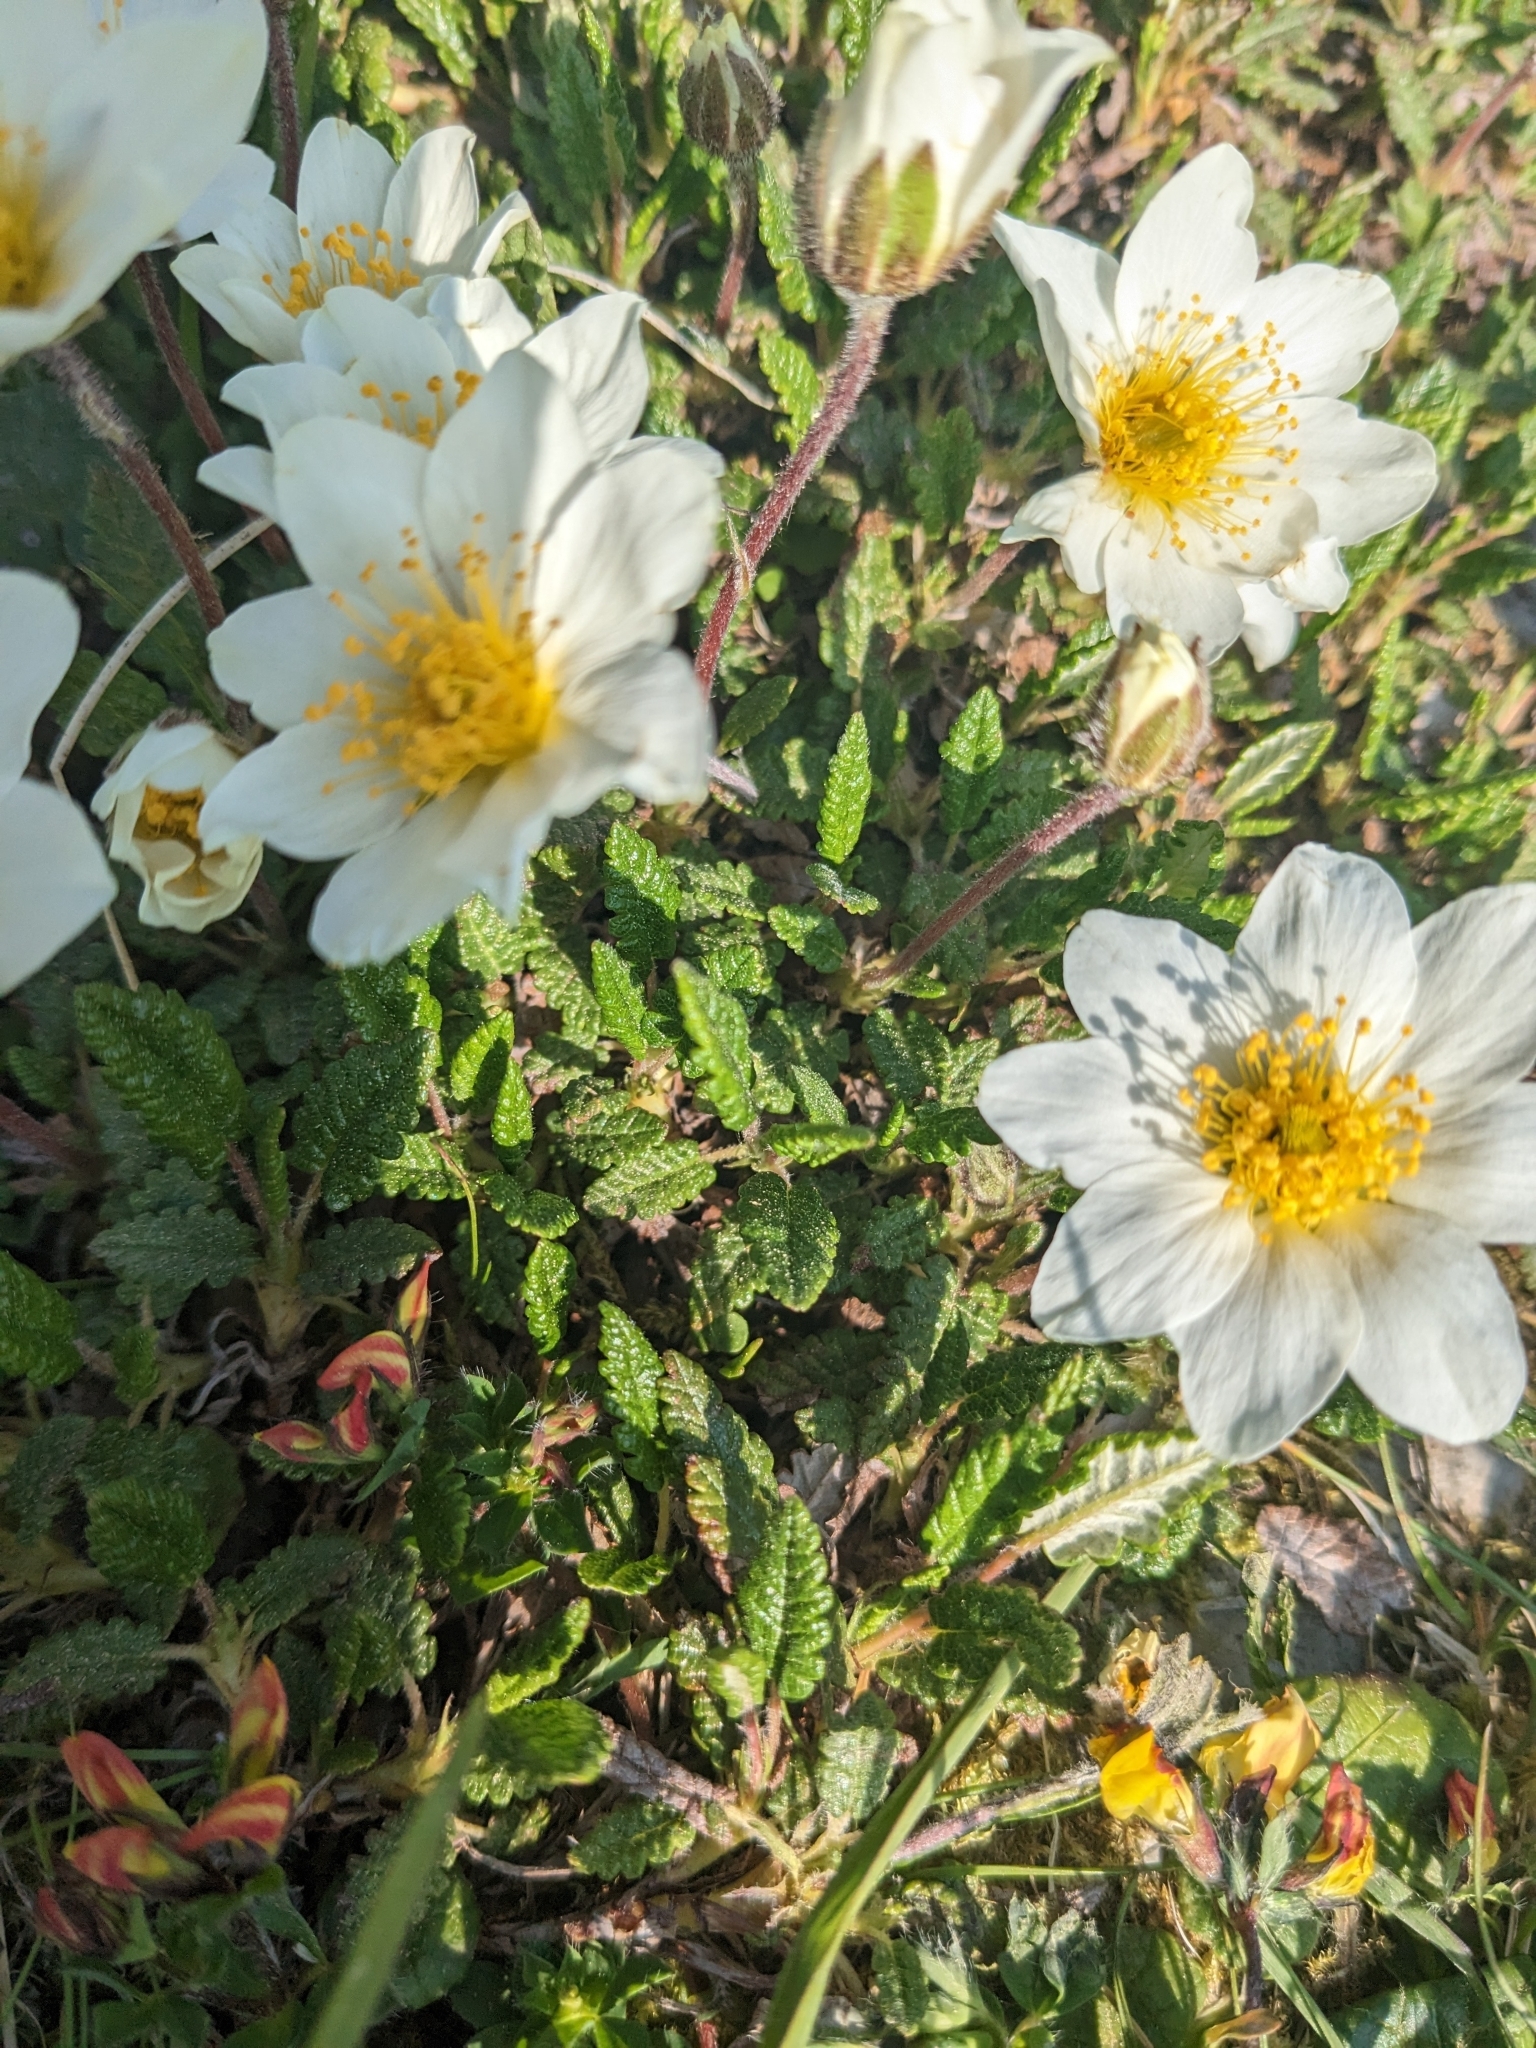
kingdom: Plantae
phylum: Tracheophyta
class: Magnoliopsida
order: Rosales
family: Rosaceae
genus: Dryas
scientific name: Dryas octopetala
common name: Eight-petal mountain-avens
